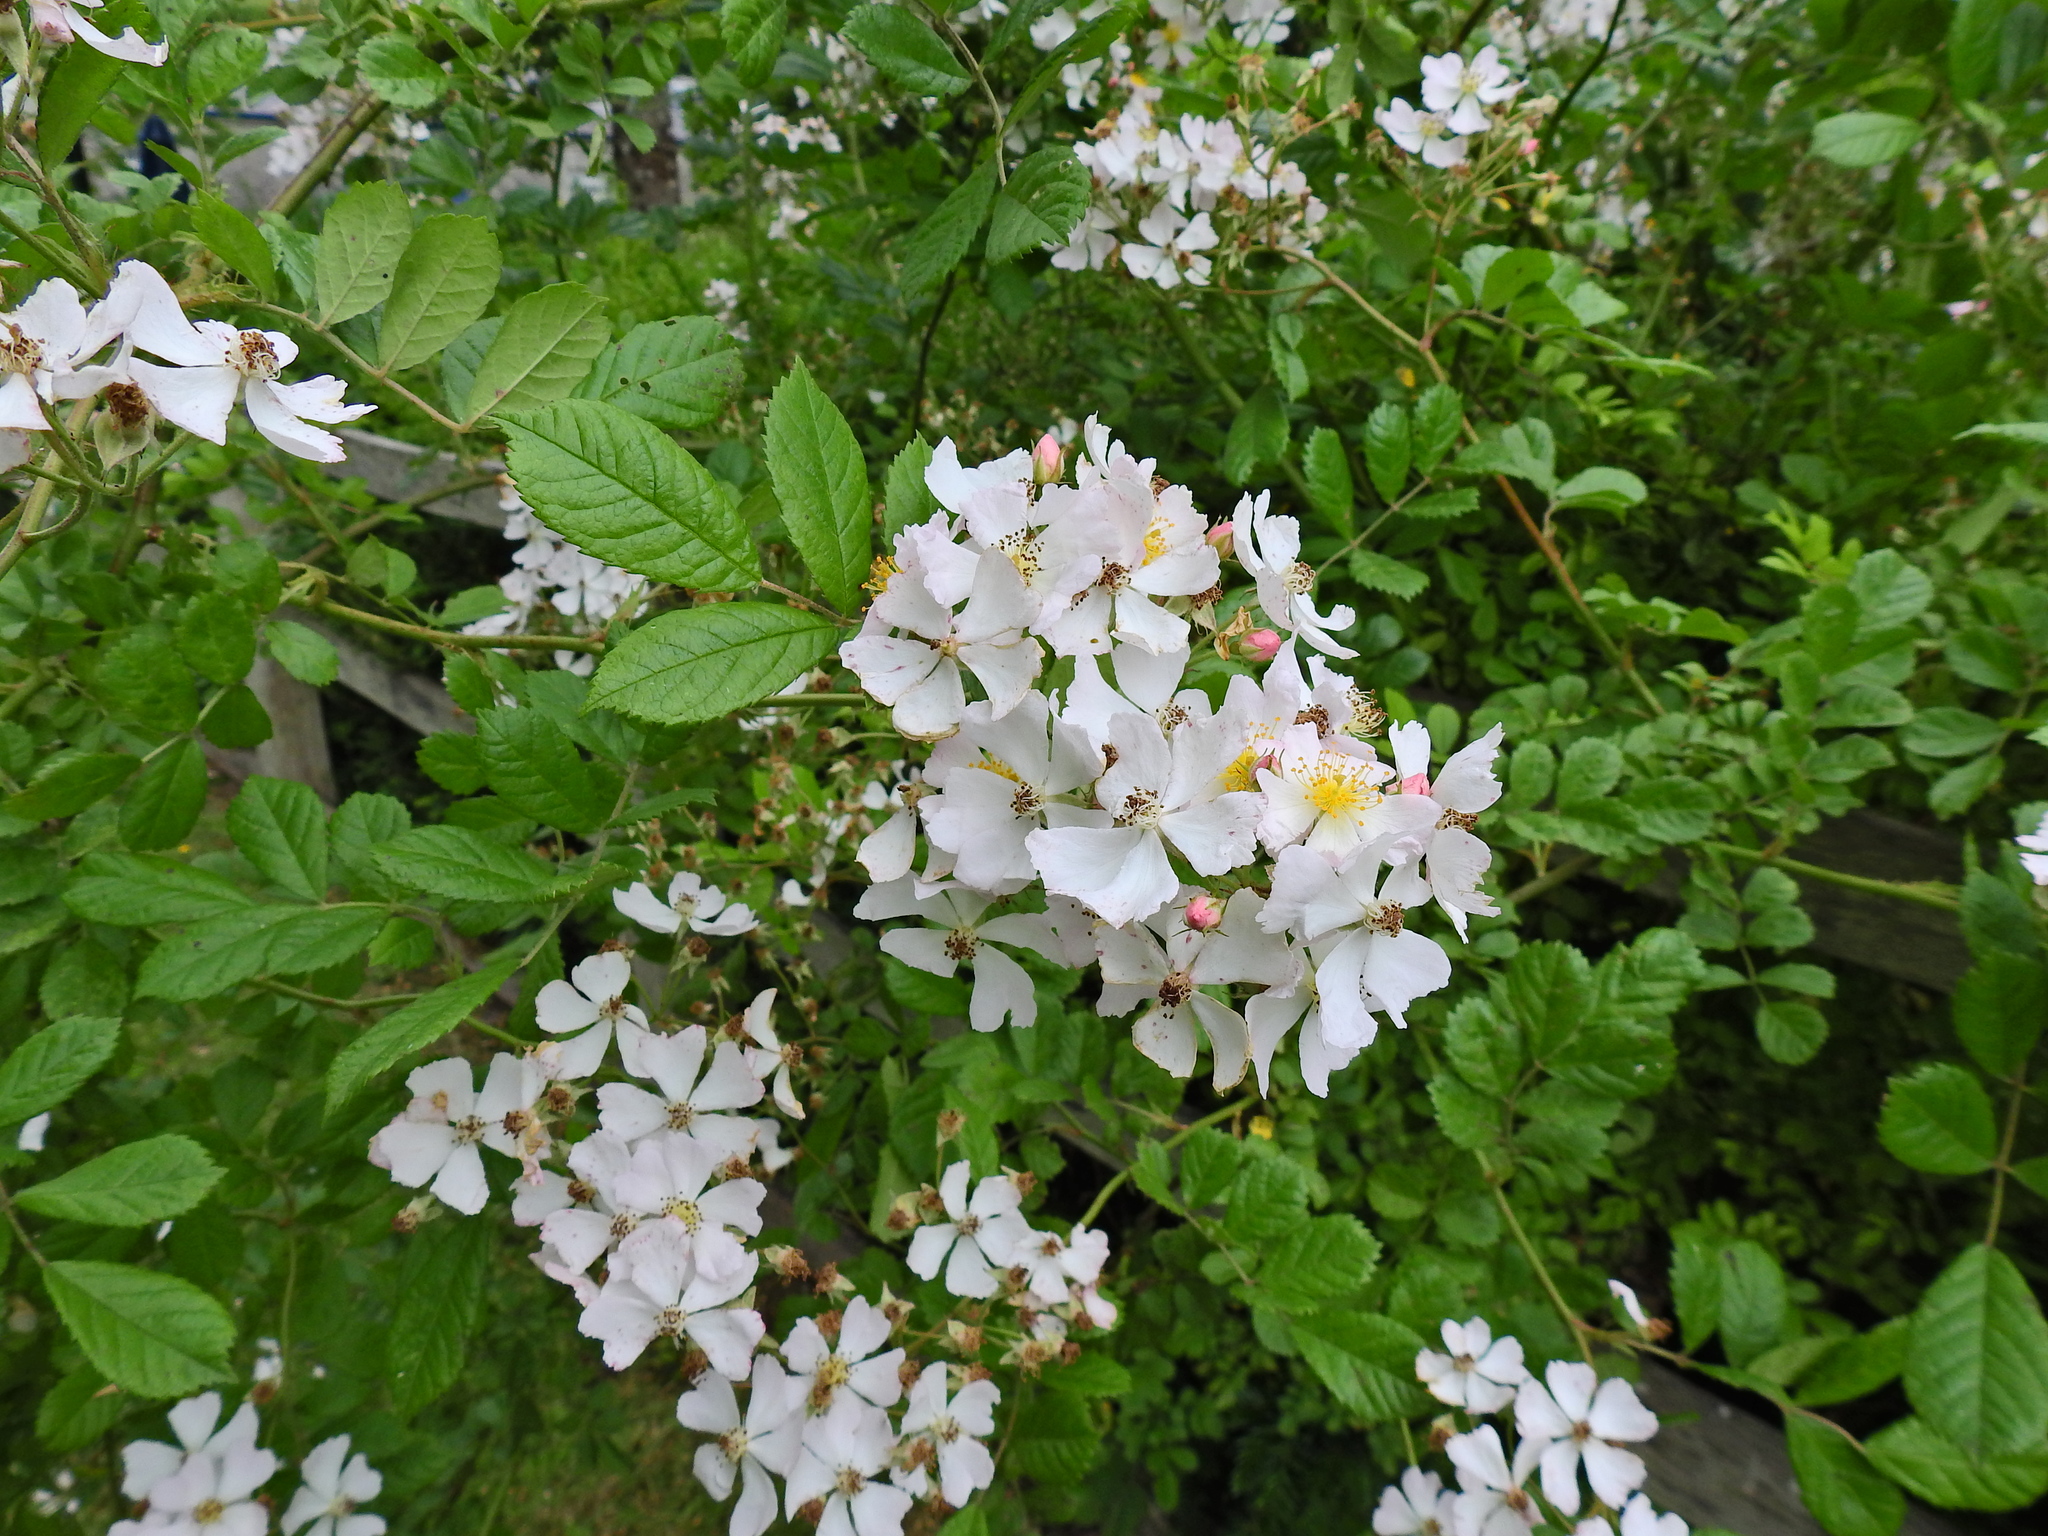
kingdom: Plantae
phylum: Tracheophyta
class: Magnoliopsida
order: Rosales
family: Rosaceae
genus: Rosa
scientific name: Rosa multiflora
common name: Multiflora rose
